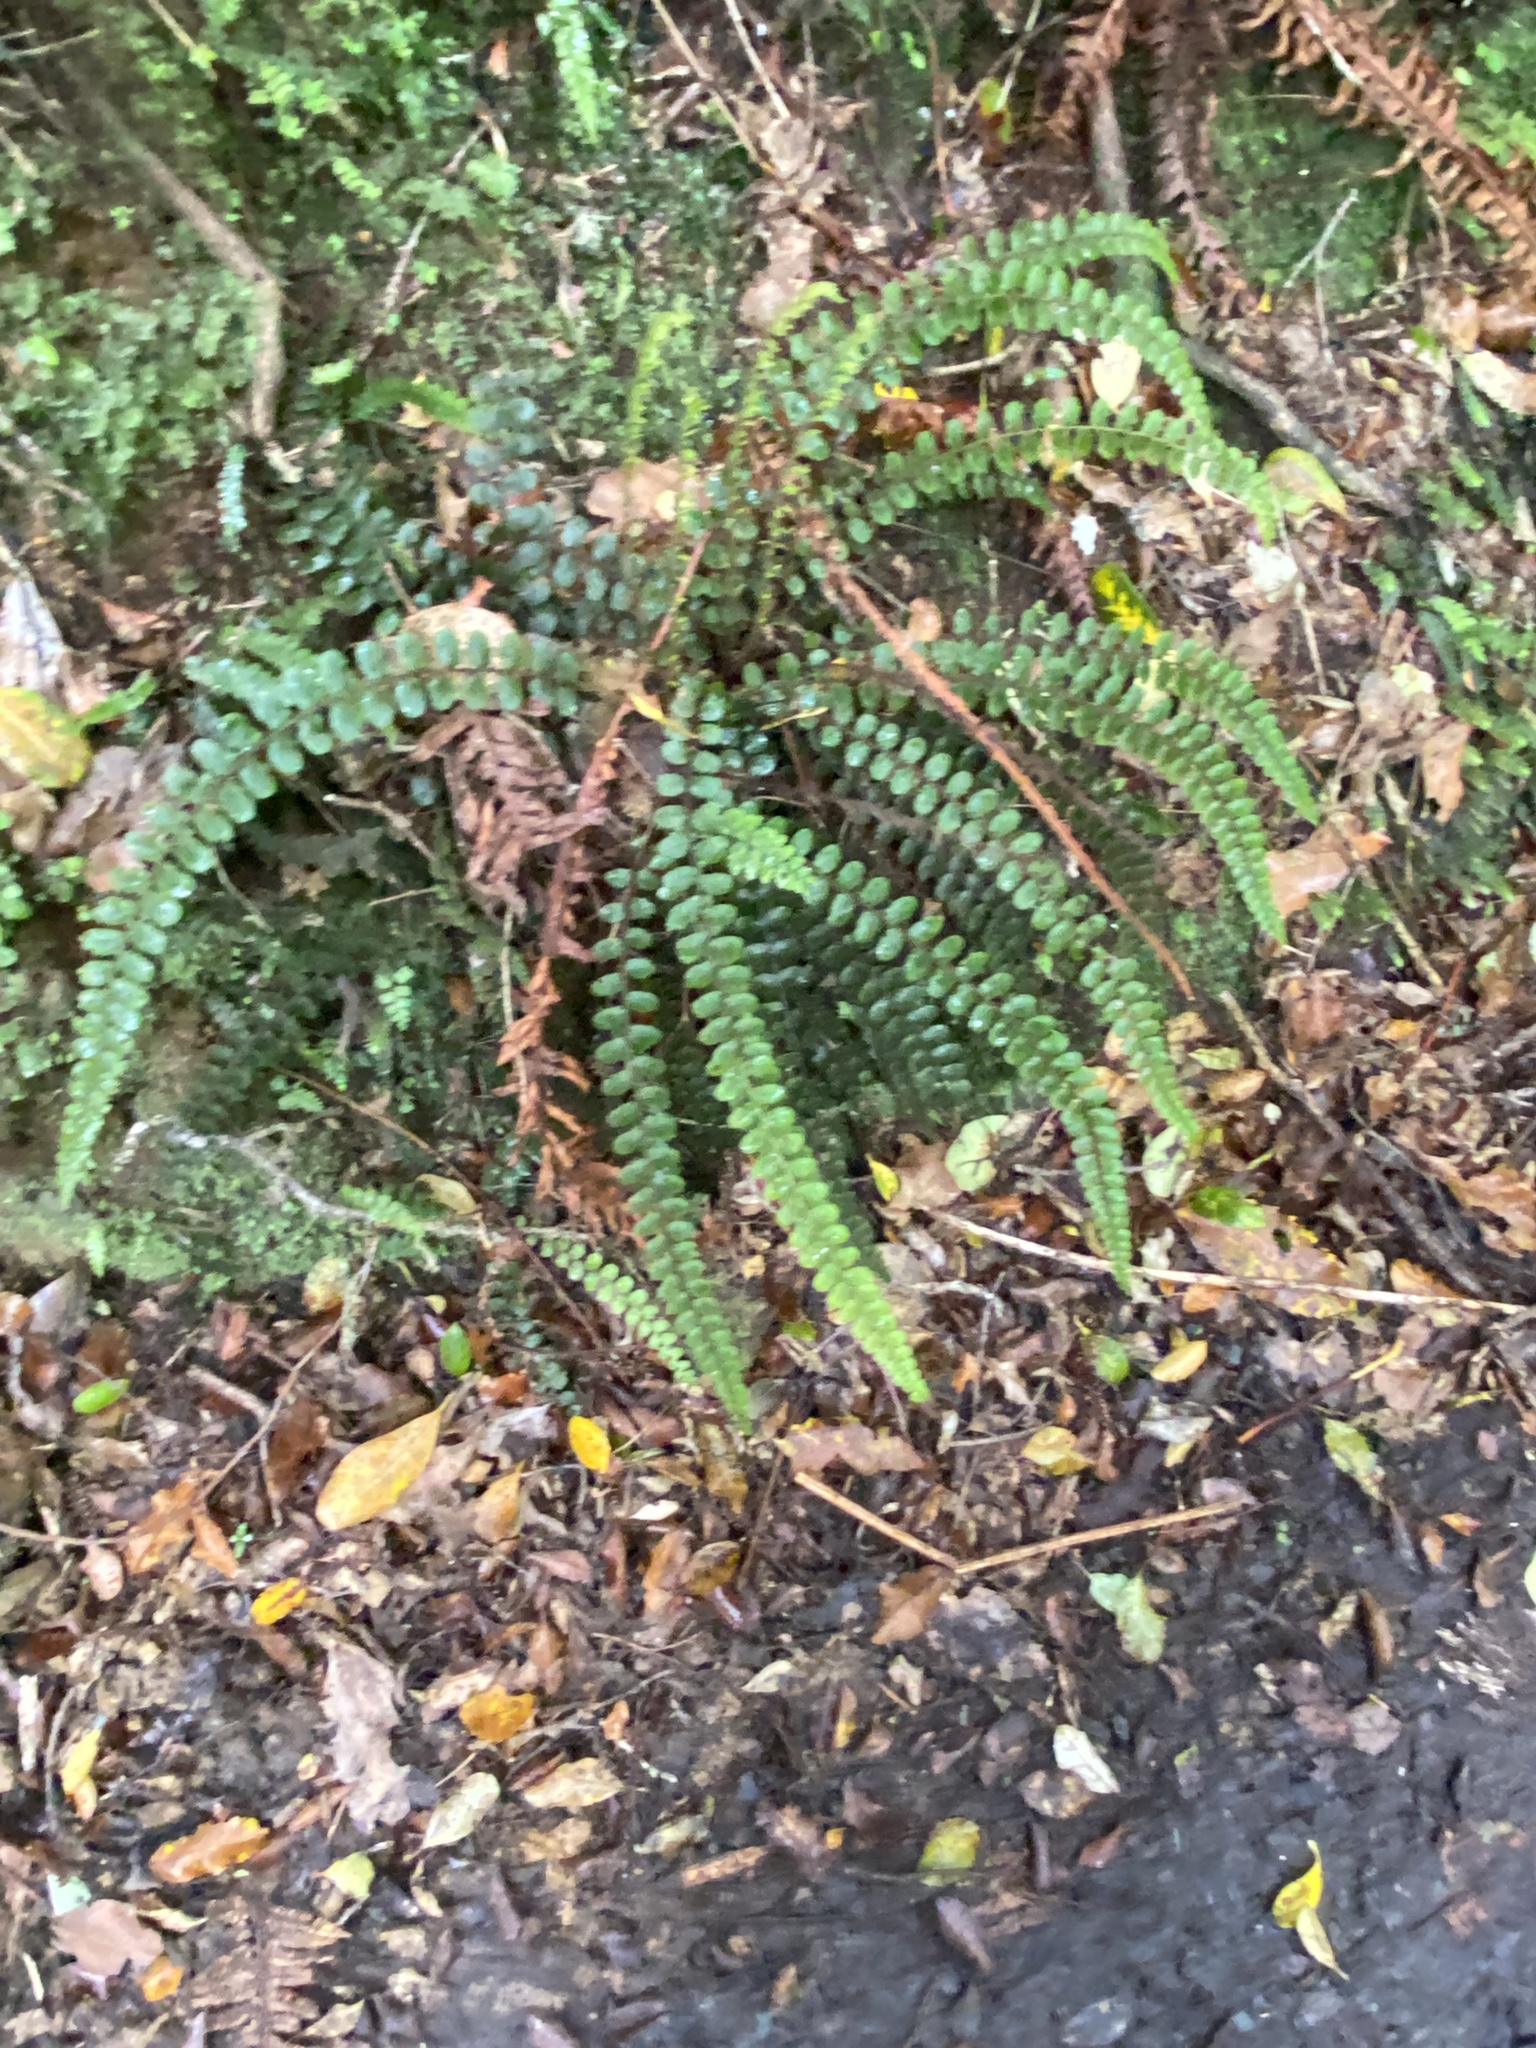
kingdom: Plantae
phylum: Tracheophyta
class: Polypodiopsida
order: Polypodiales
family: Blechnaceae
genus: Cranfillia
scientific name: Cranfillia fluviatilis
